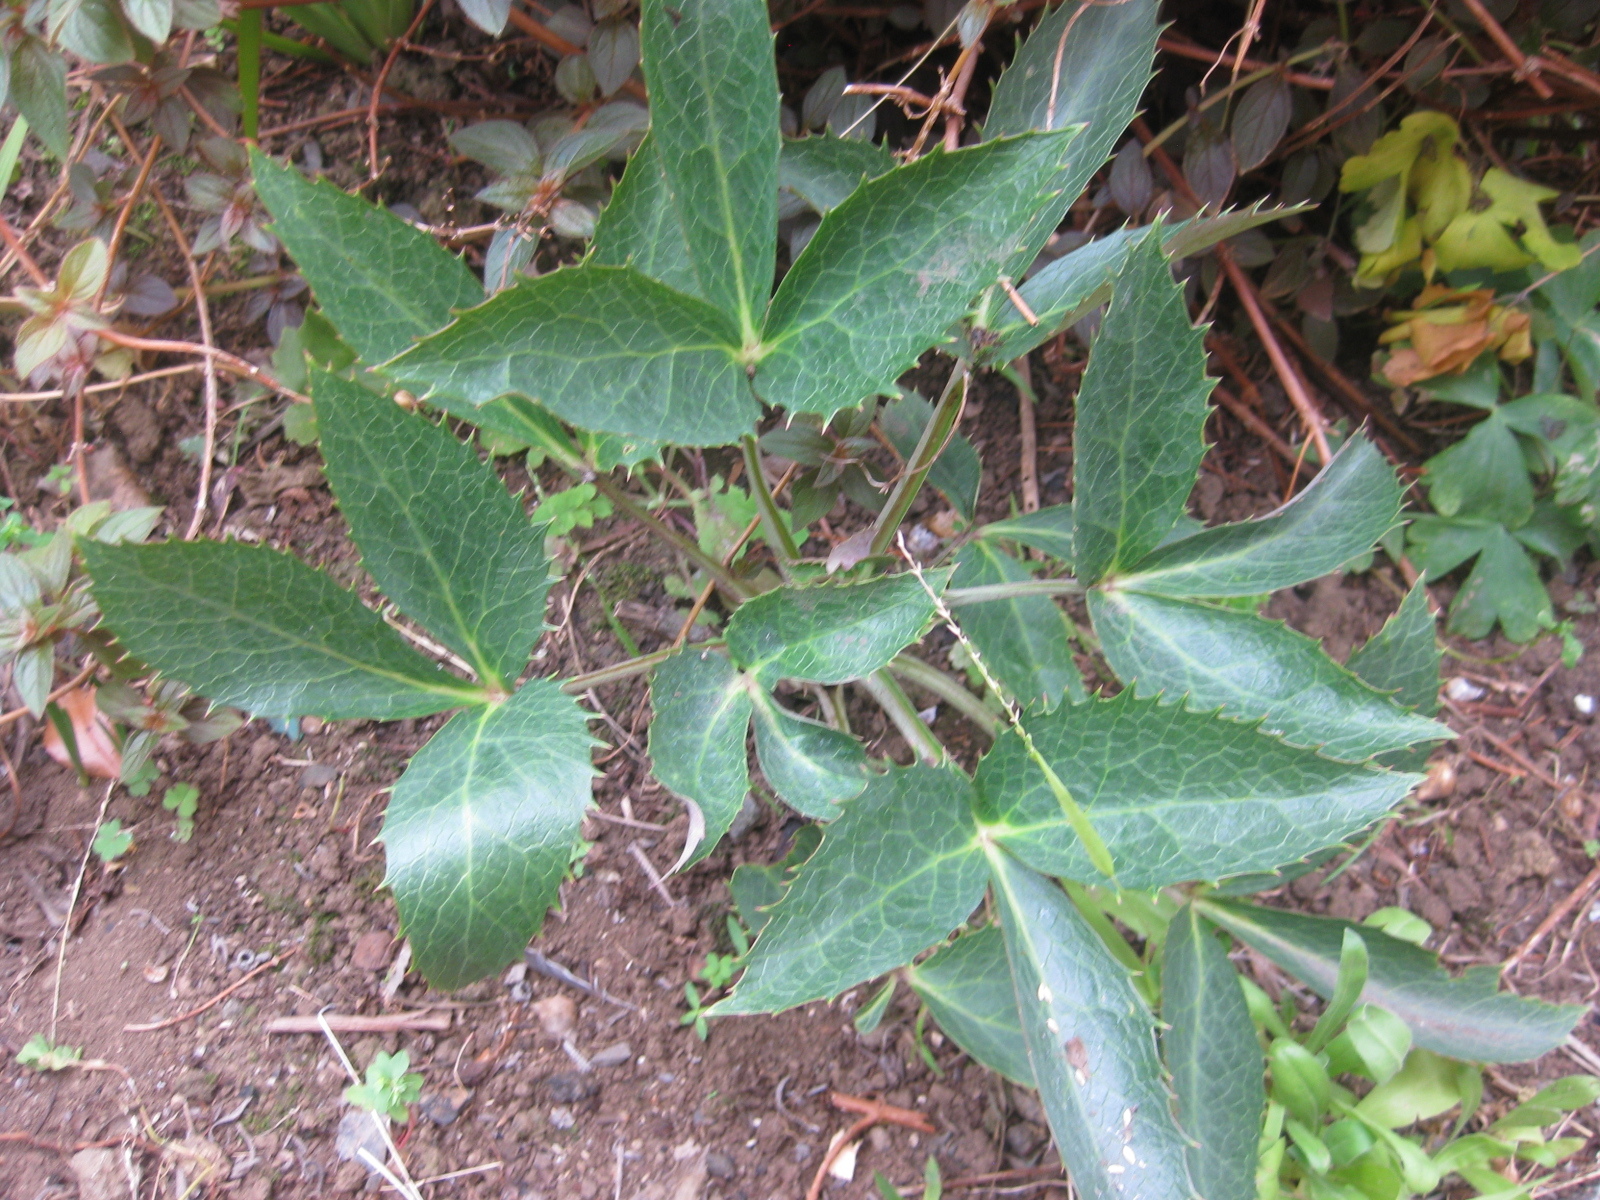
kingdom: Plantae
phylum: Tracheophyta
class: Magnoliopsida
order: Ranunculales
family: Ranunculaceae
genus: Helleborus
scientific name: Helleborus argutifolius
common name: Corsican hellebore
